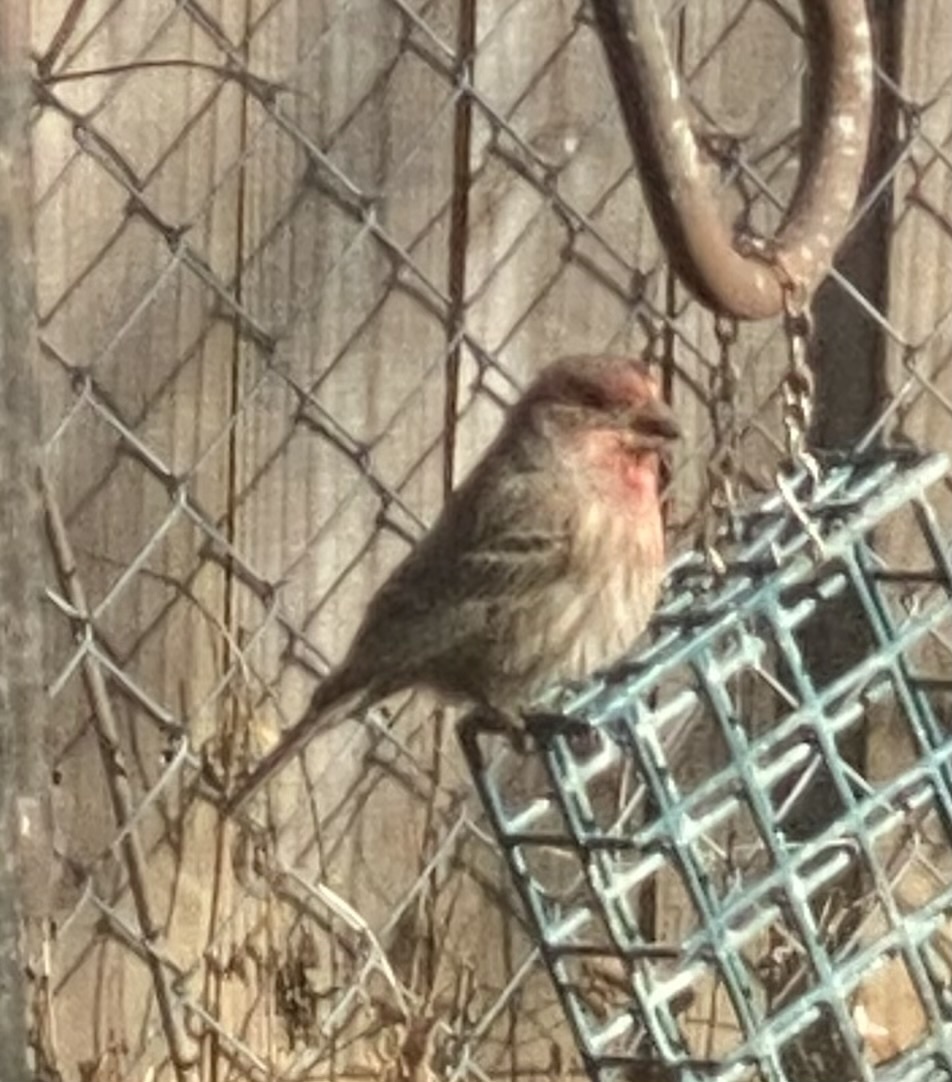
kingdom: Animalia
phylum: Chordata
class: Aves
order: Passeriformes
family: Fringillidae
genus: Haemorhous
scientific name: Haemorhous mexicanus
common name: House finch
